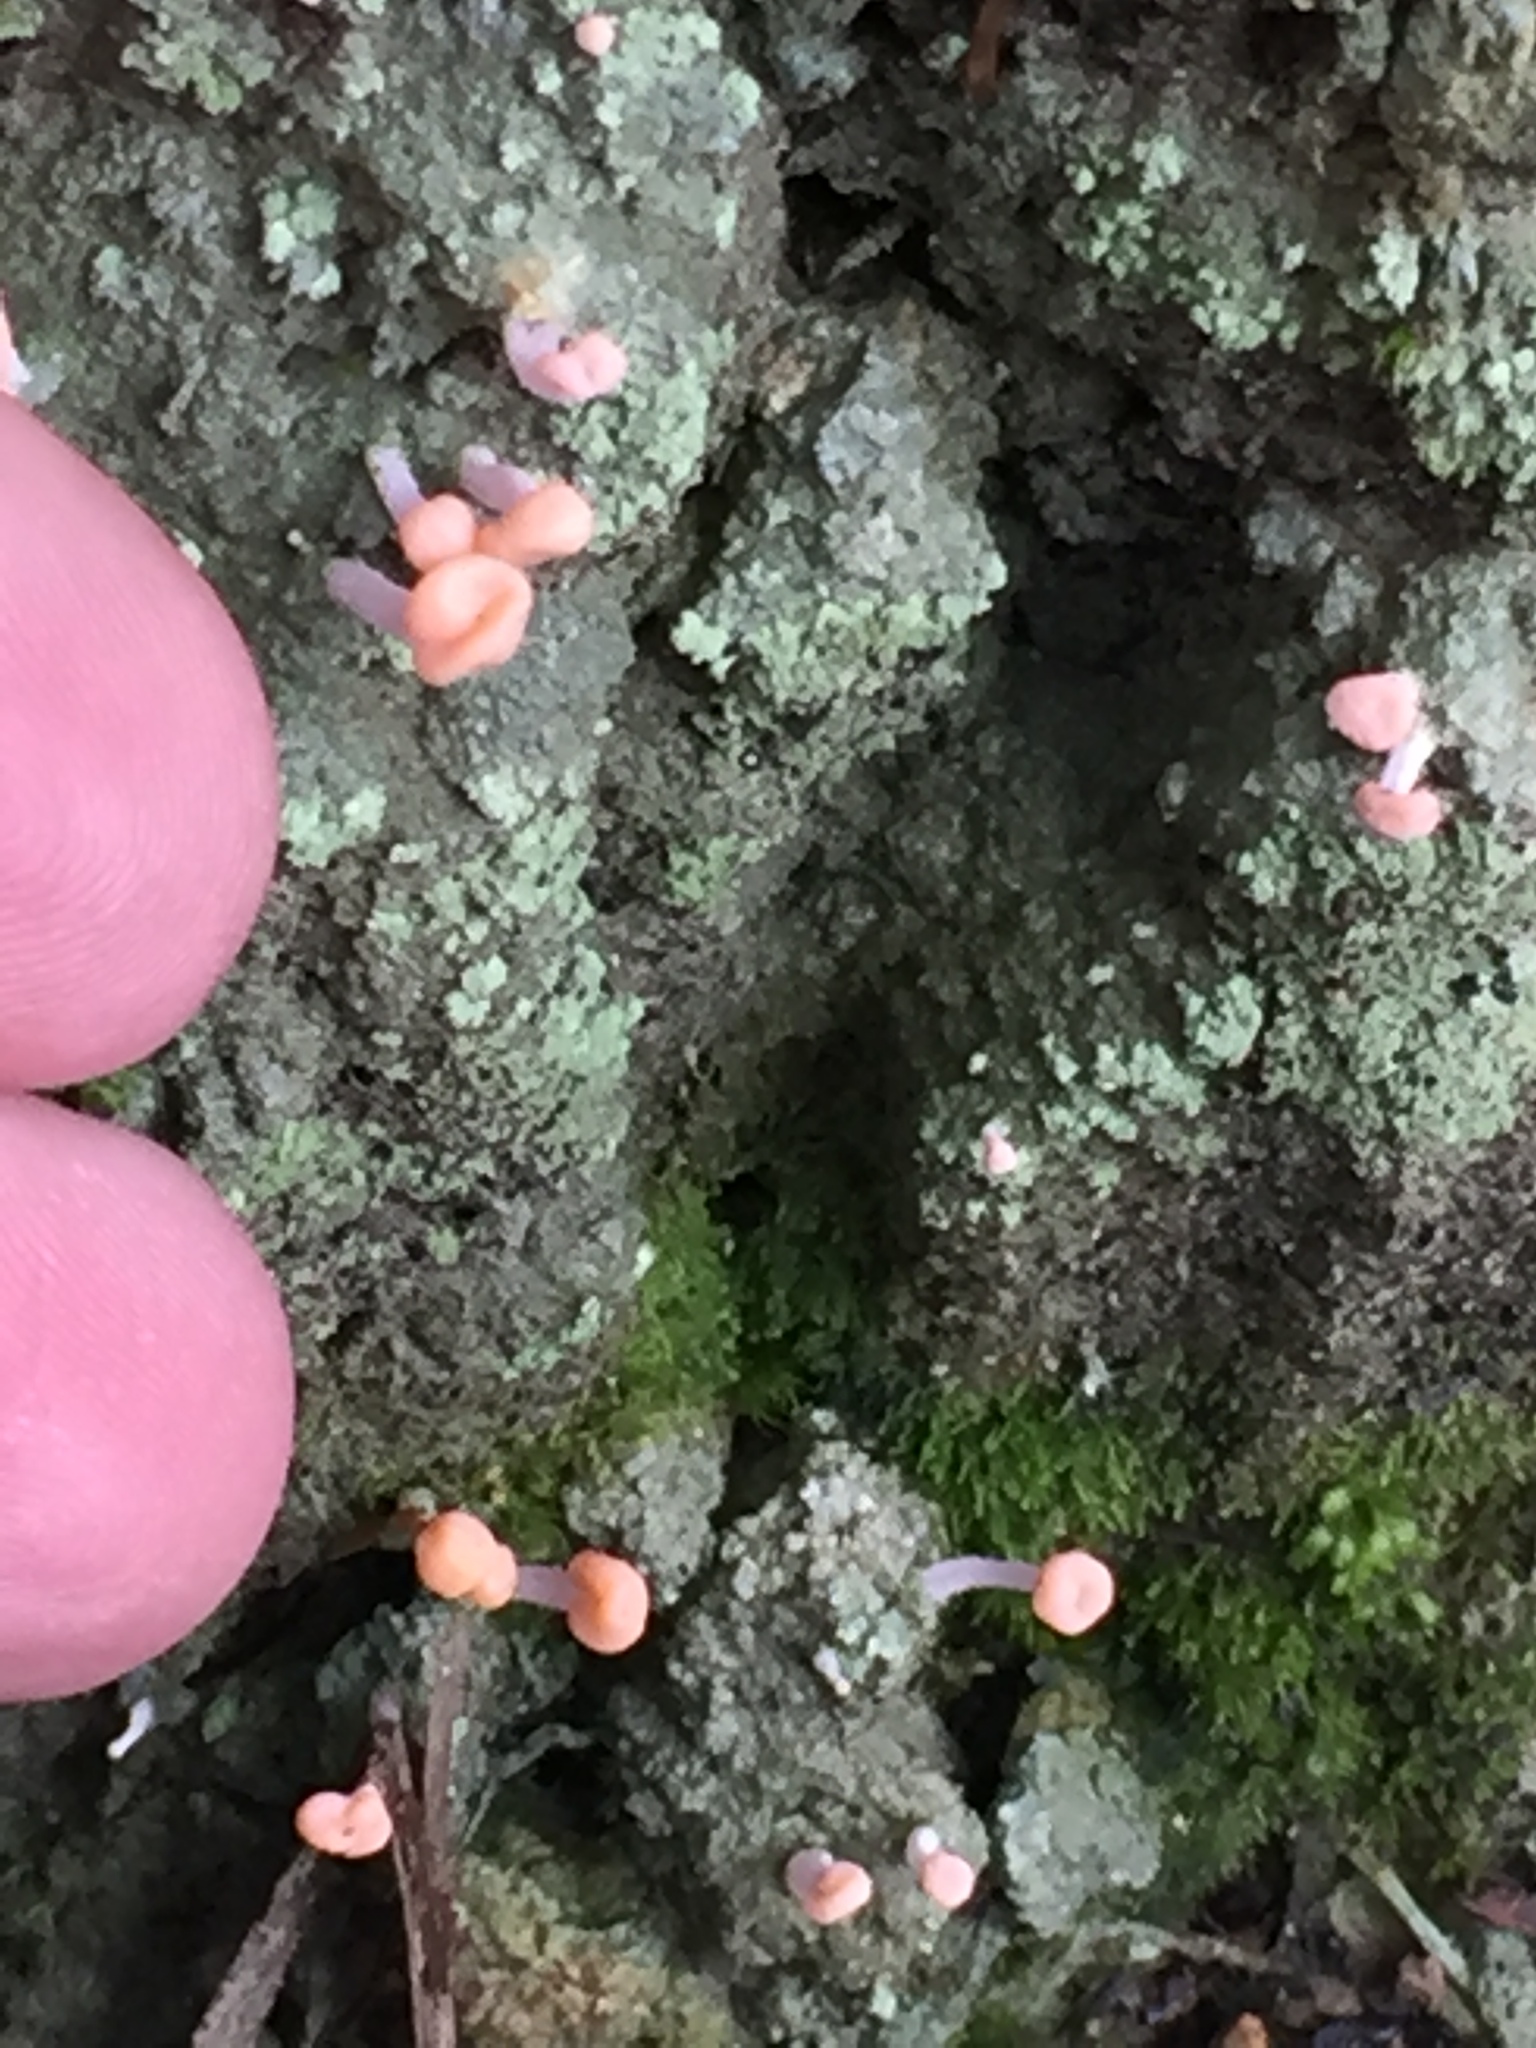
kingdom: Fungi
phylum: Ascomycota
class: Lecanoromycetes
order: Pertusariales
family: Icmadophilaceae
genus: Dibaeis
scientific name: Dibaeis arcuata
